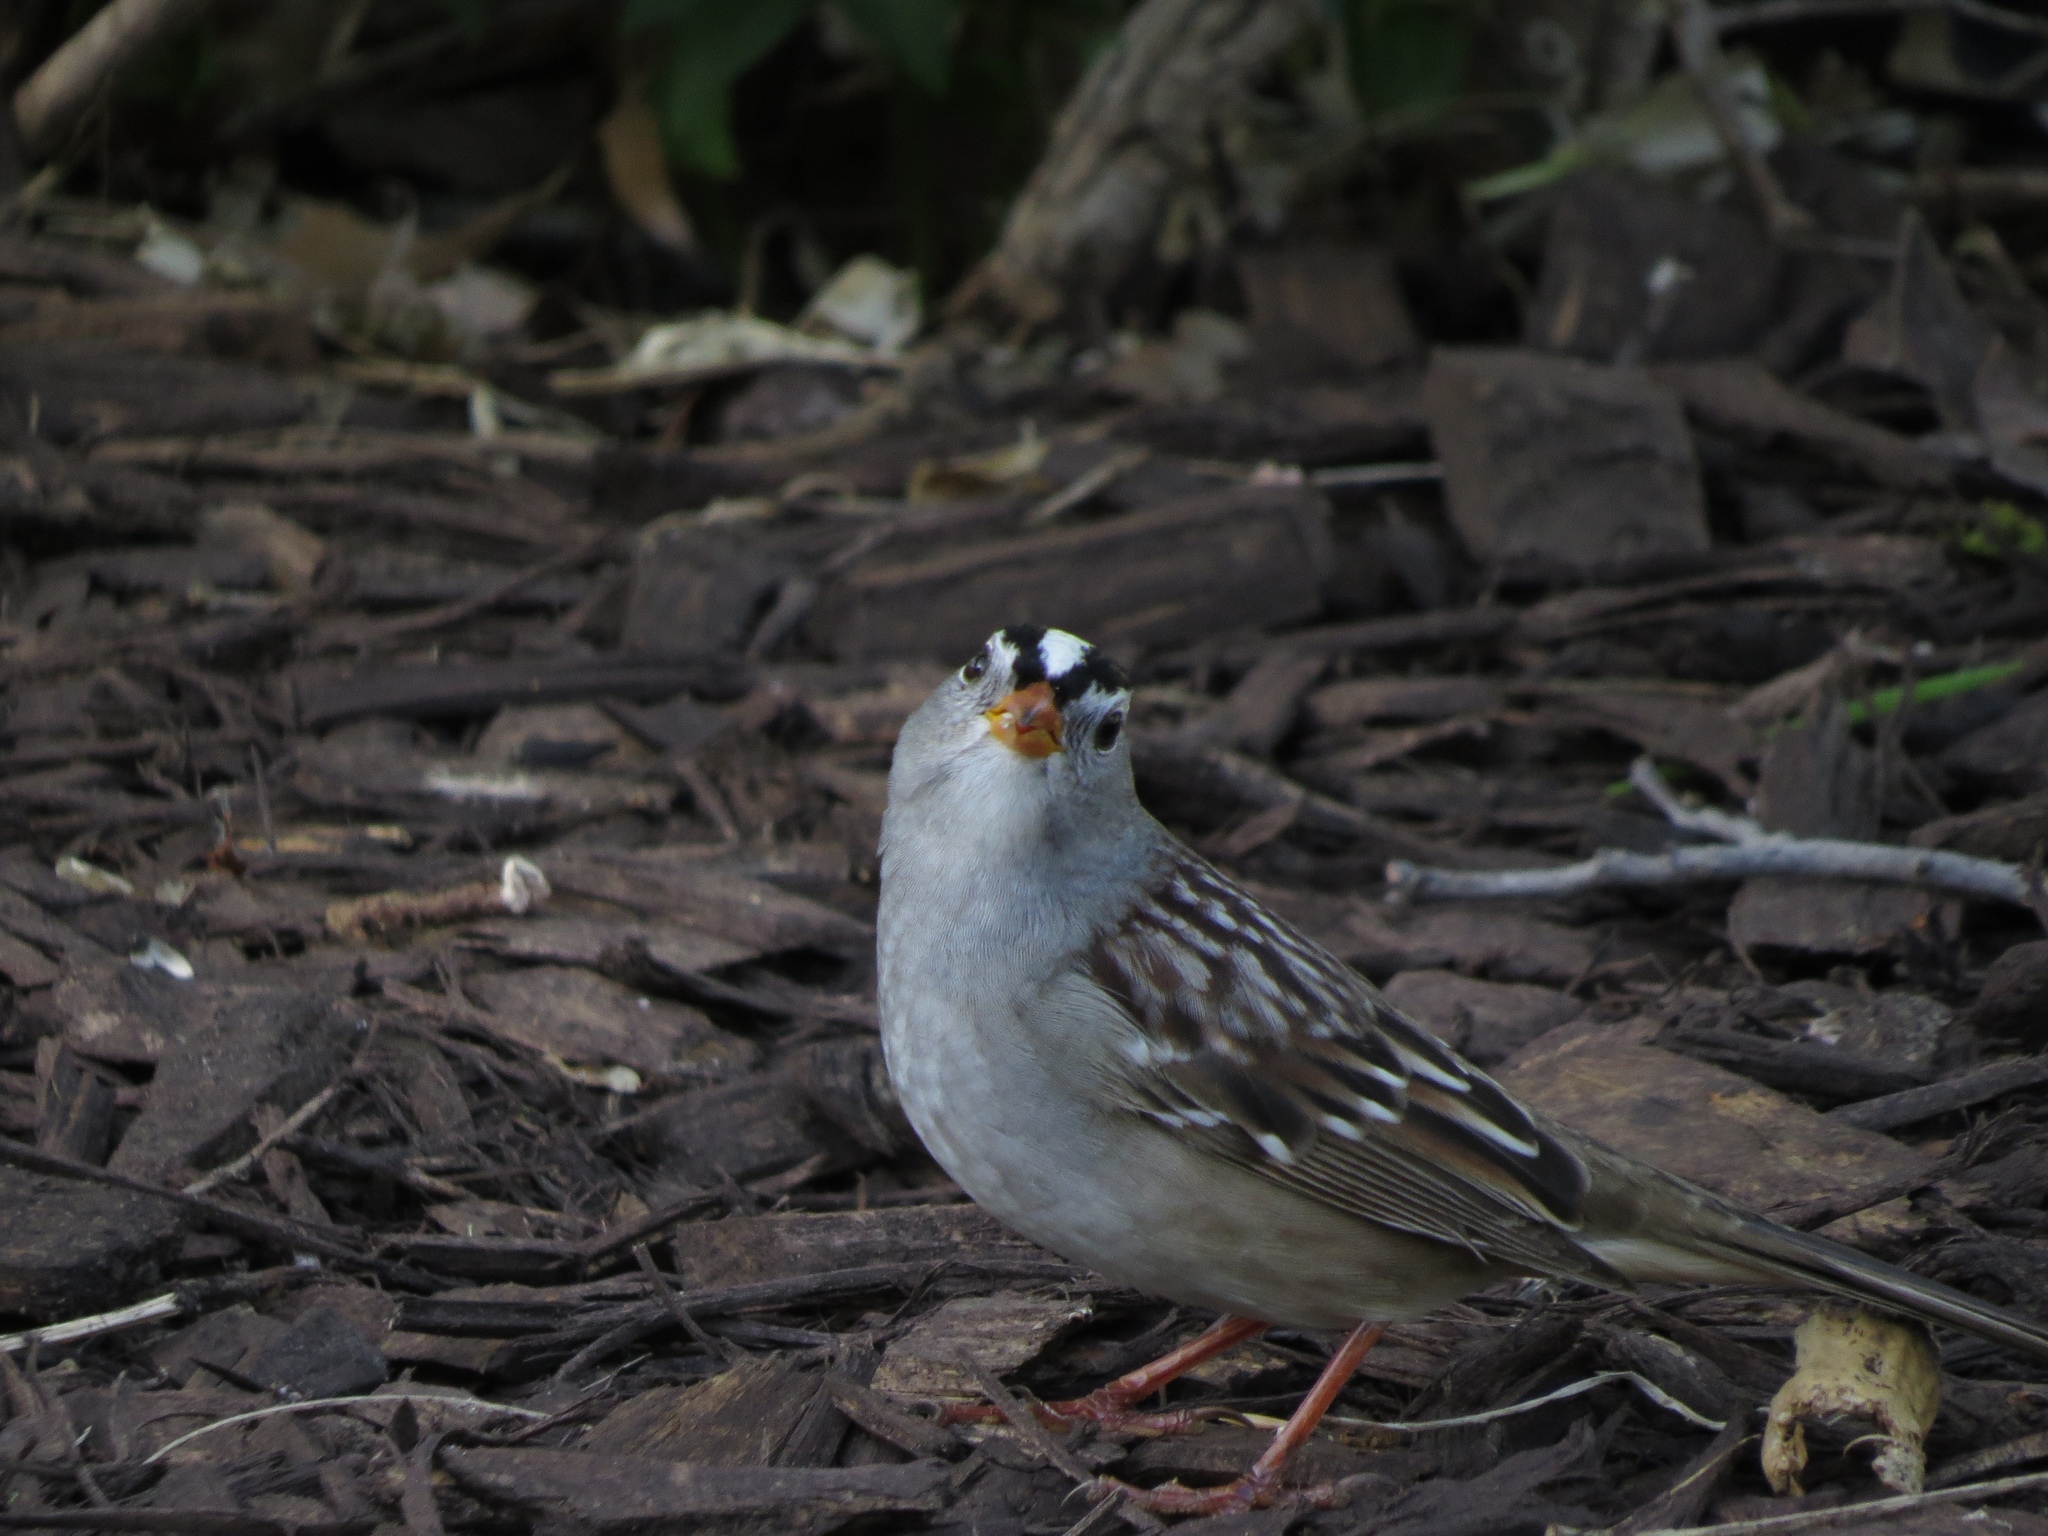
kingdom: Animalia
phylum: Chordata
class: Aves
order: Passeriformes
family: Passerellidae
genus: Zonotrichia
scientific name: Zonotrichia leucophrys
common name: White-crowned sparrow
